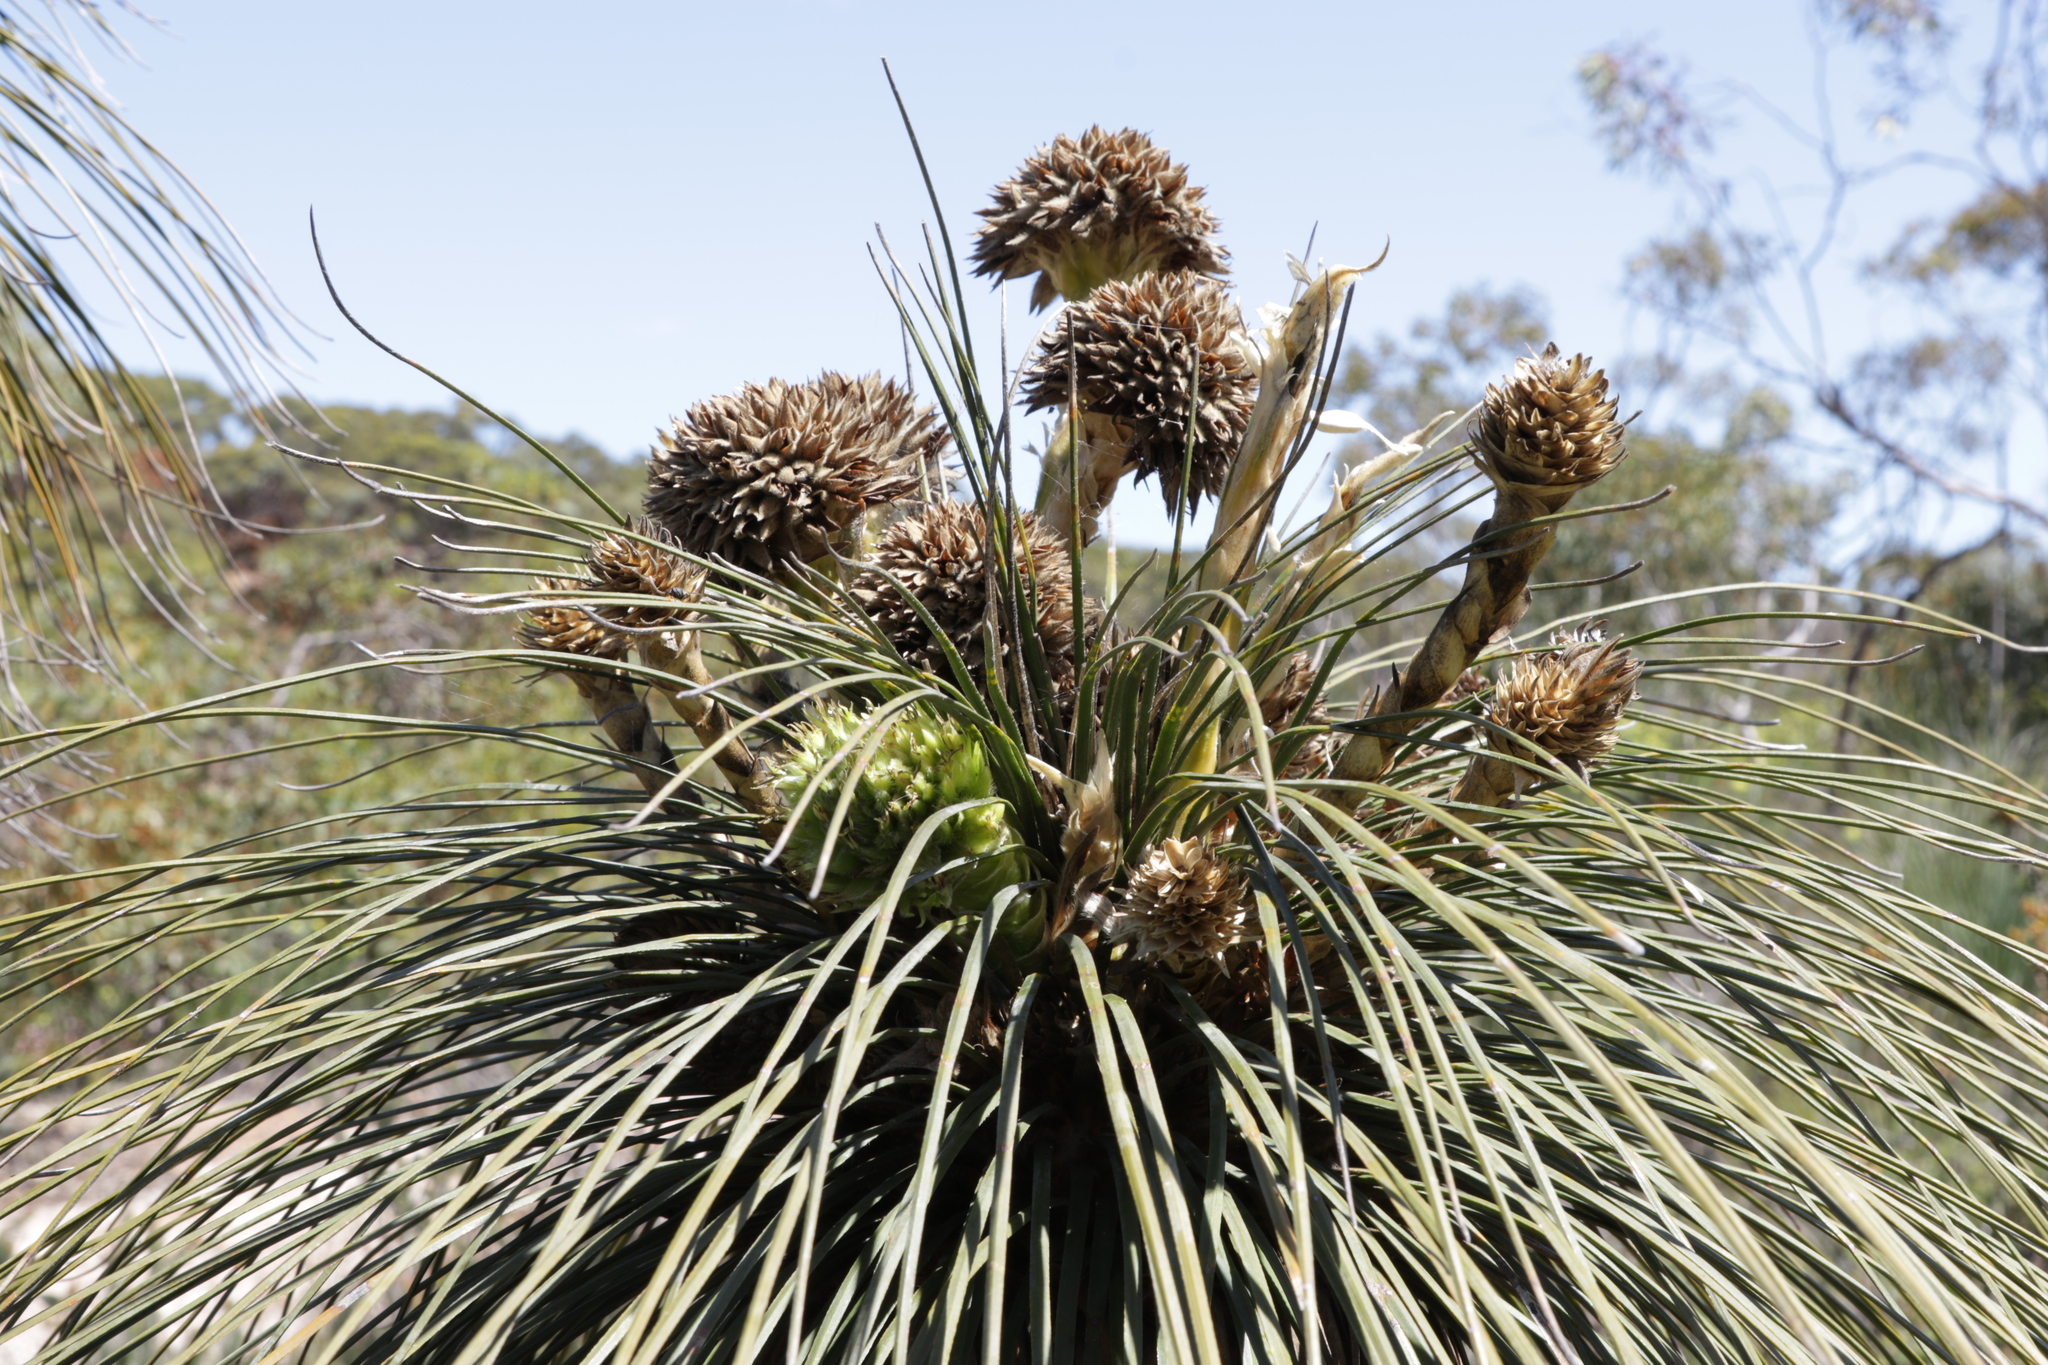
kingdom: Plantae
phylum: Tracheophyta
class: Liliopsida
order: Arecales
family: Dasypogonaceae
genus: Kingia
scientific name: Kingia australis
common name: Black gin
